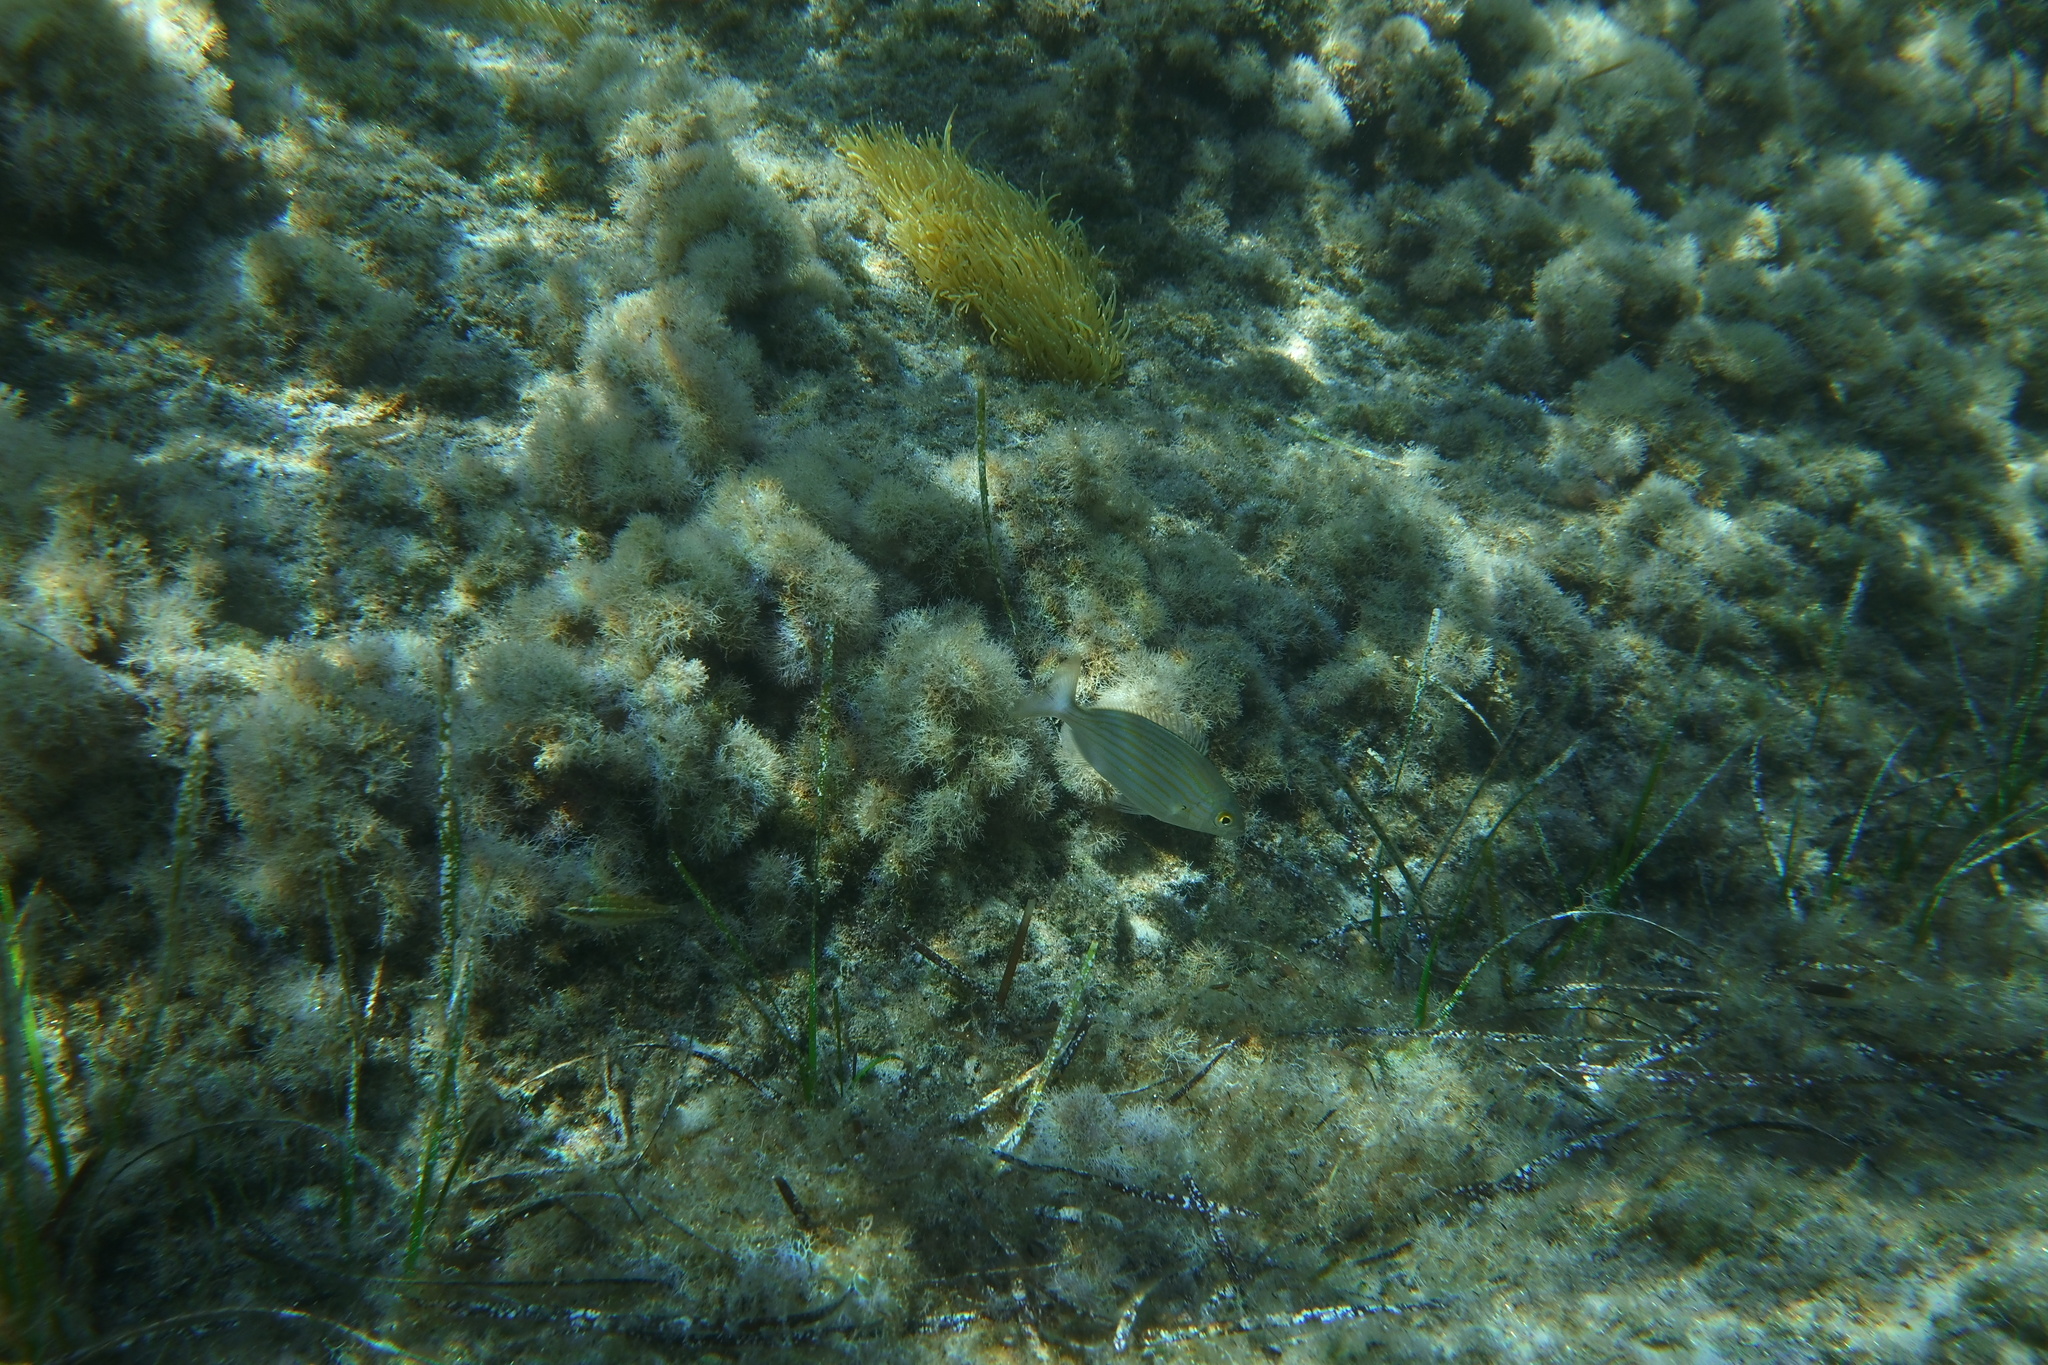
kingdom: Animalia
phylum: Chordata
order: Perciformes
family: Sparidae
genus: Sarpa
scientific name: Sarpa salpa
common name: Salema
